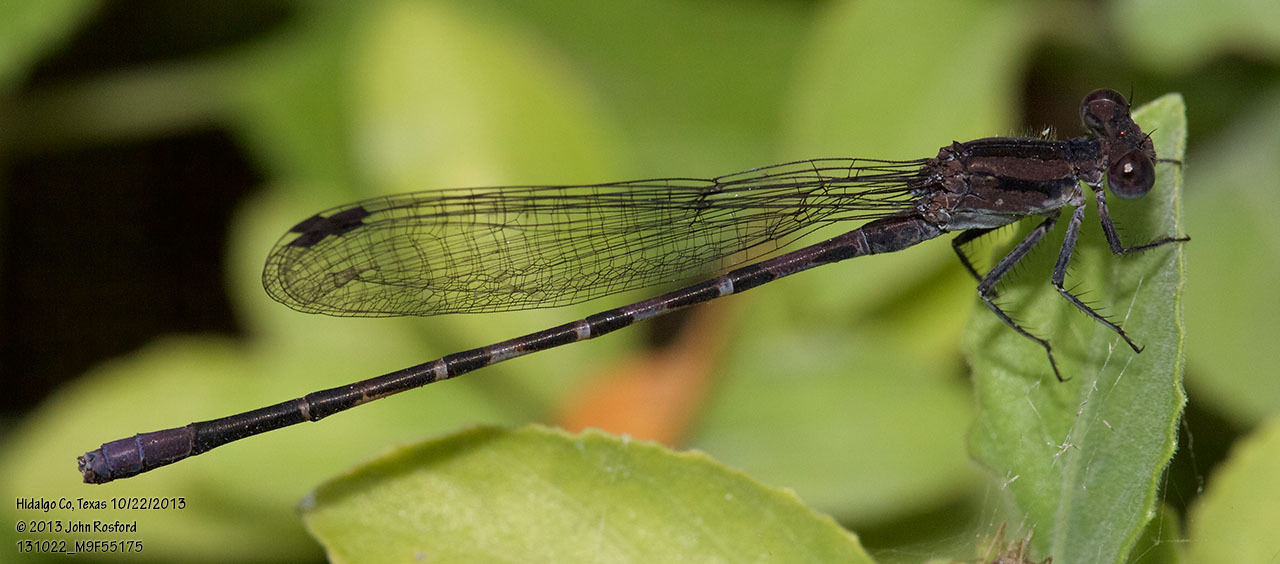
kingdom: Animalia
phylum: Arthropoda
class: Insecta
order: Odonata
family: Coenagrionidae
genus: Argia
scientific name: Argia immunda
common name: Kiowa dancer
